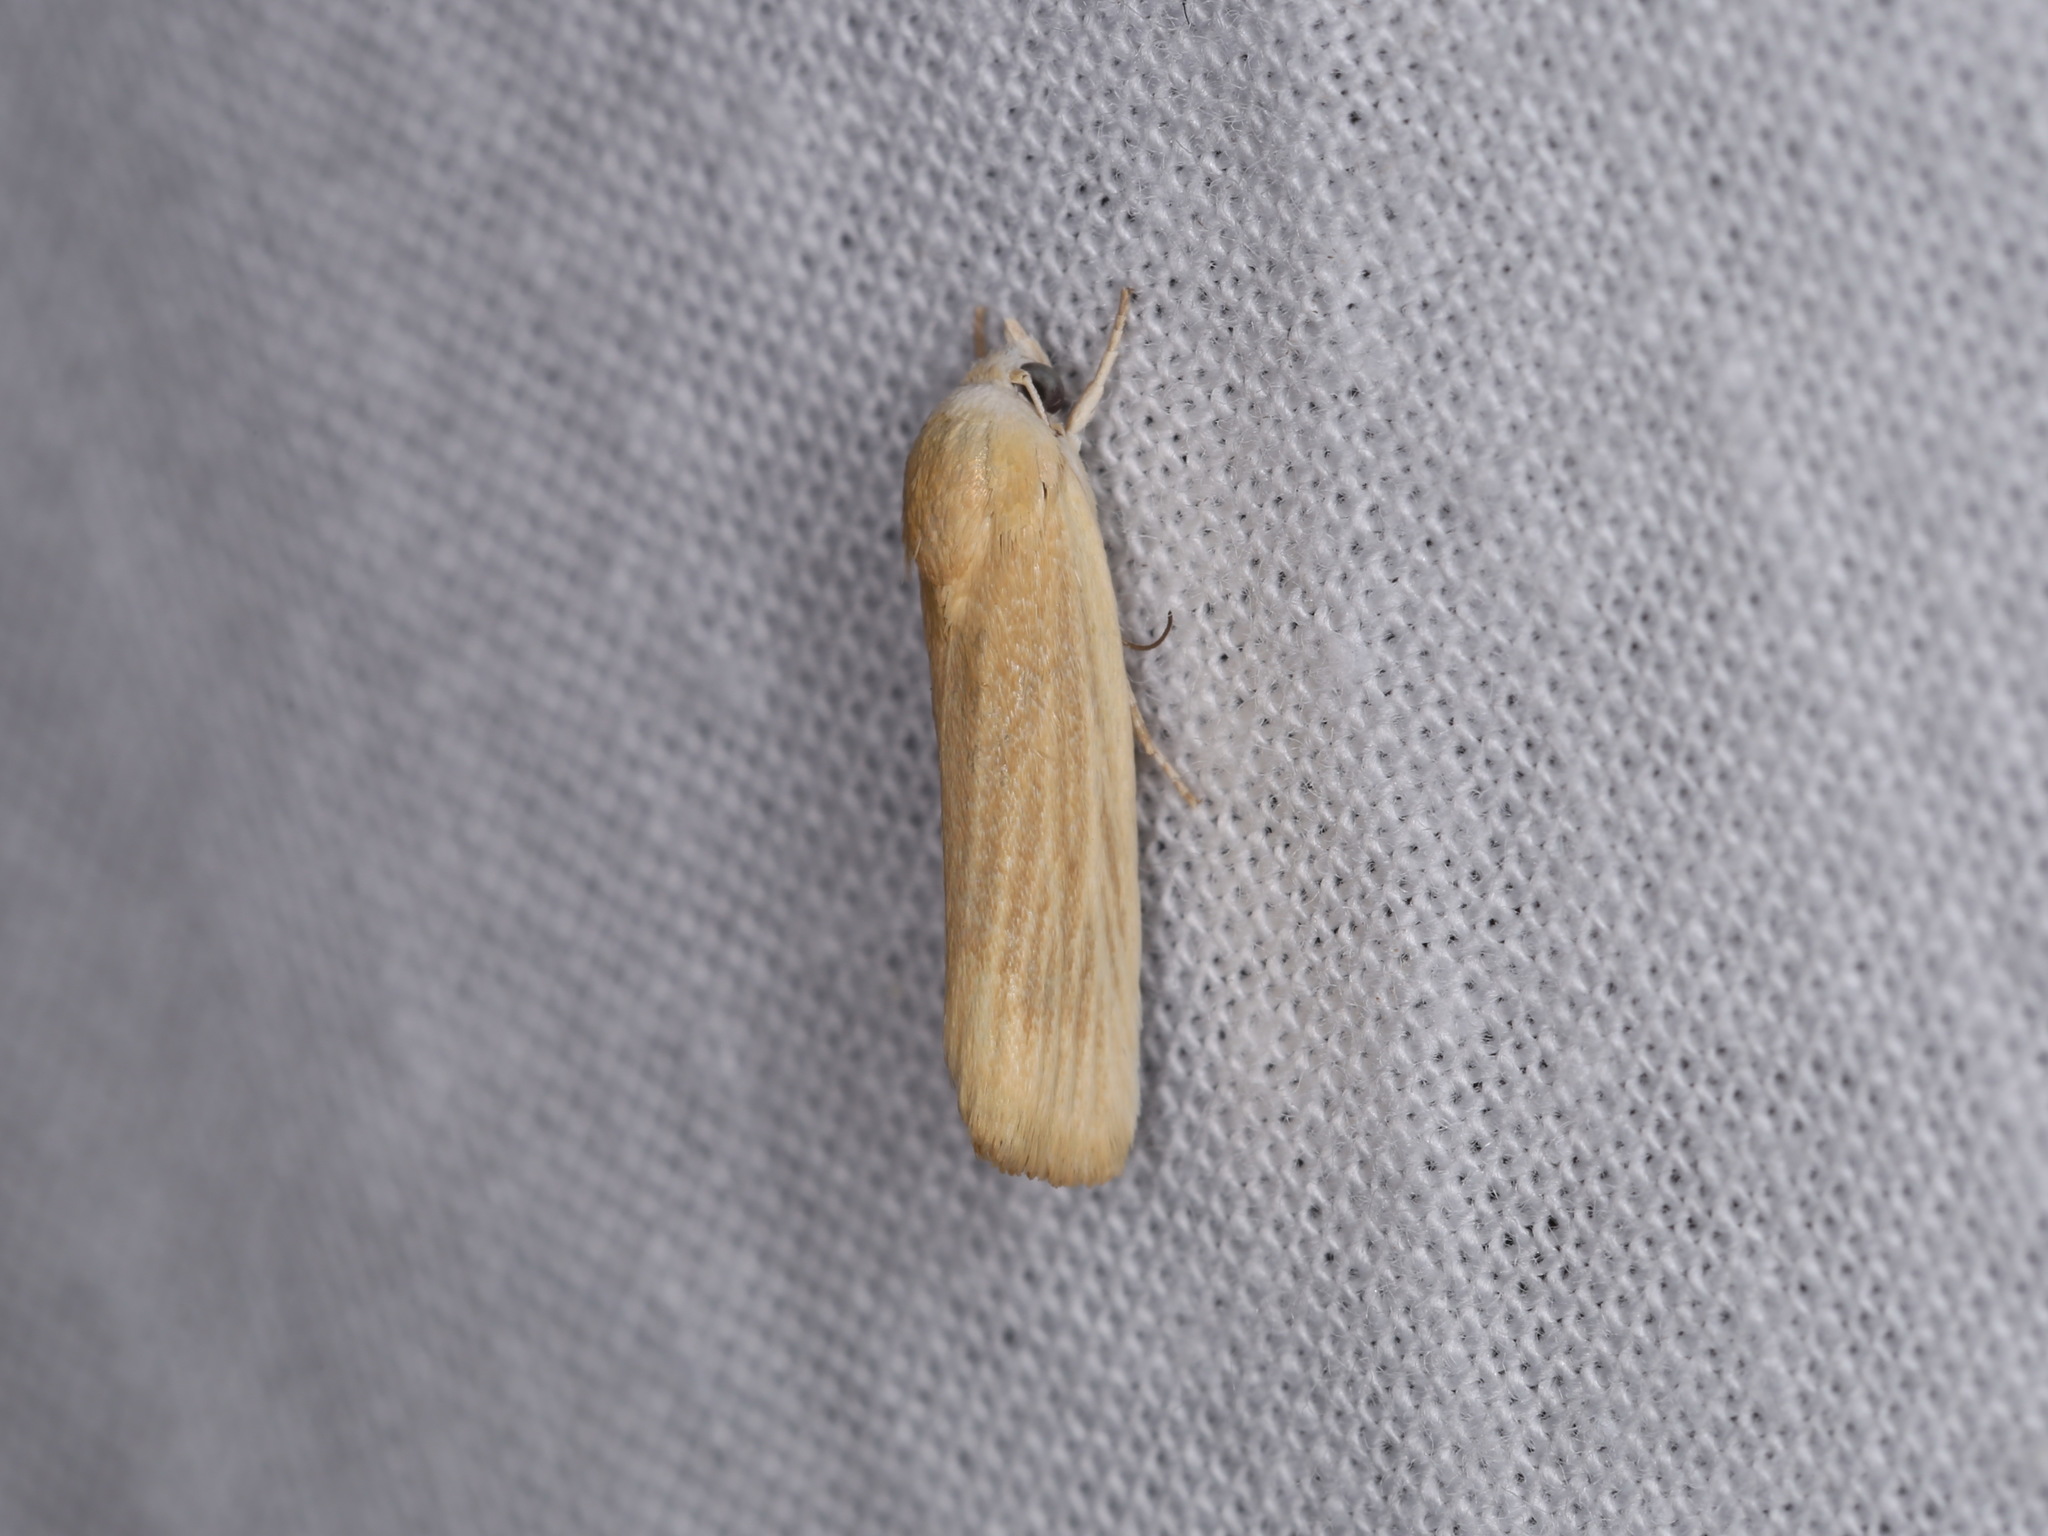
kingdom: Animalia
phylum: Arthropoda
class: Insecta
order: Lepidoptera
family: Nolidae
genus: Earias
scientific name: Earias chlorodes
